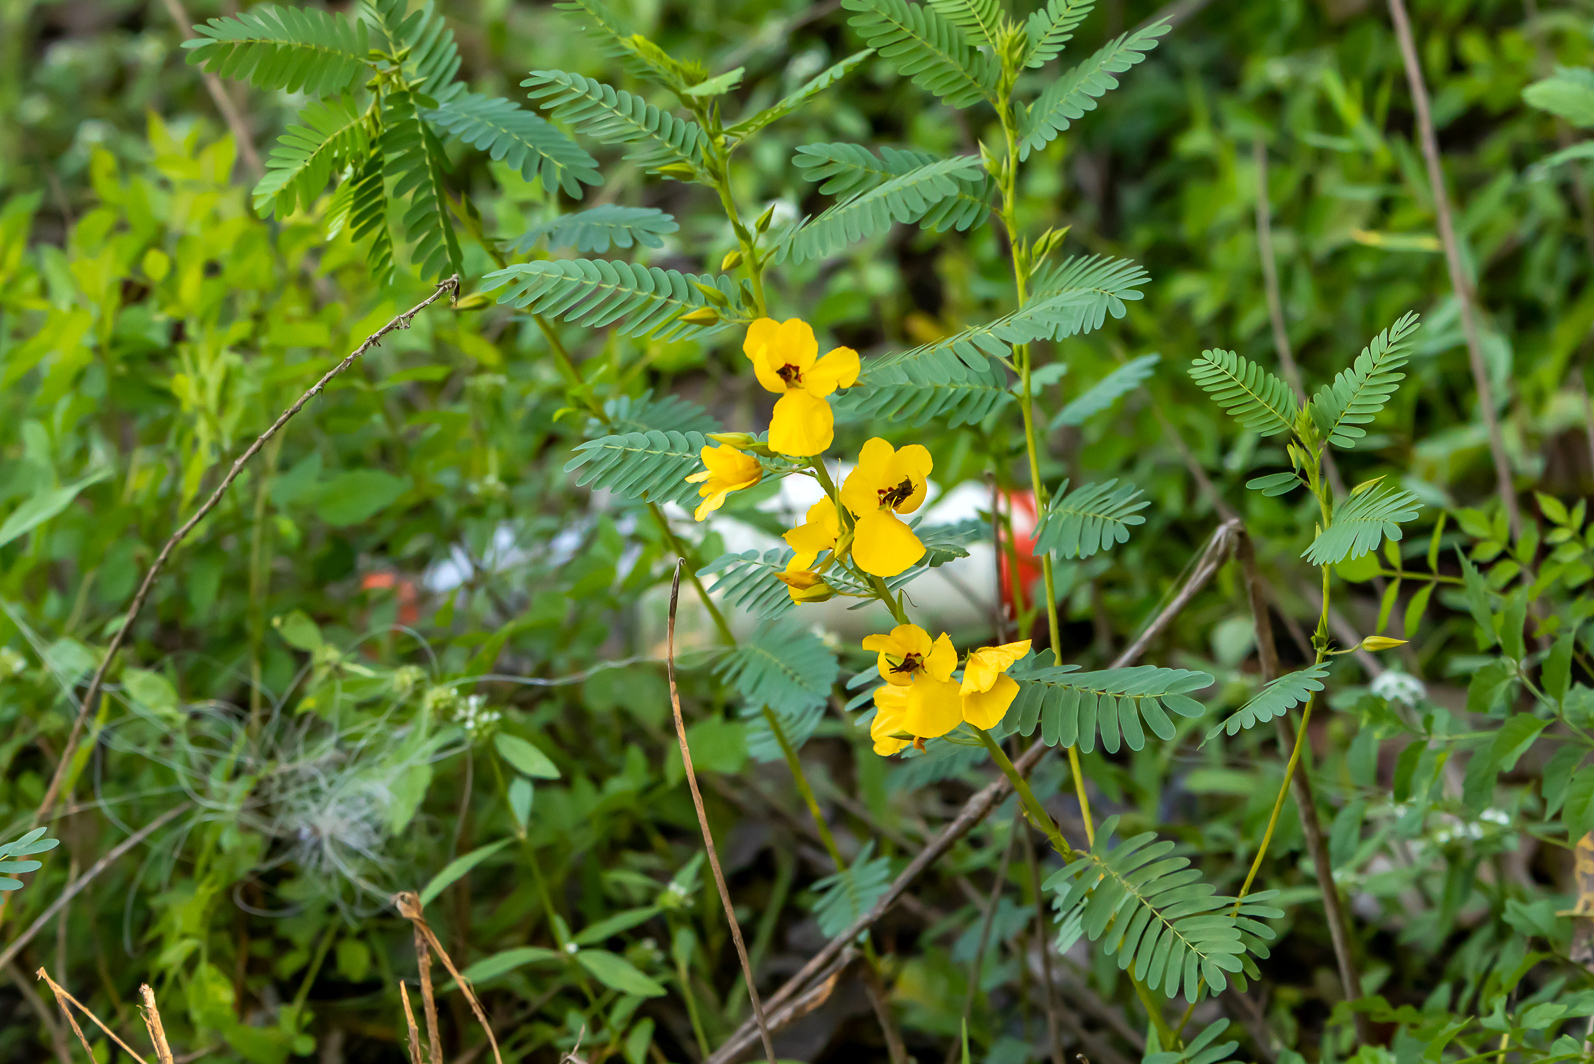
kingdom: Plantae
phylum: Tracheophyta
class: Magnoliopsida
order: Fabales
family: Fabaceae
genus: Chamaecrista
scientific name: Chamaecrista fasciculata
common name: Golden cassia
